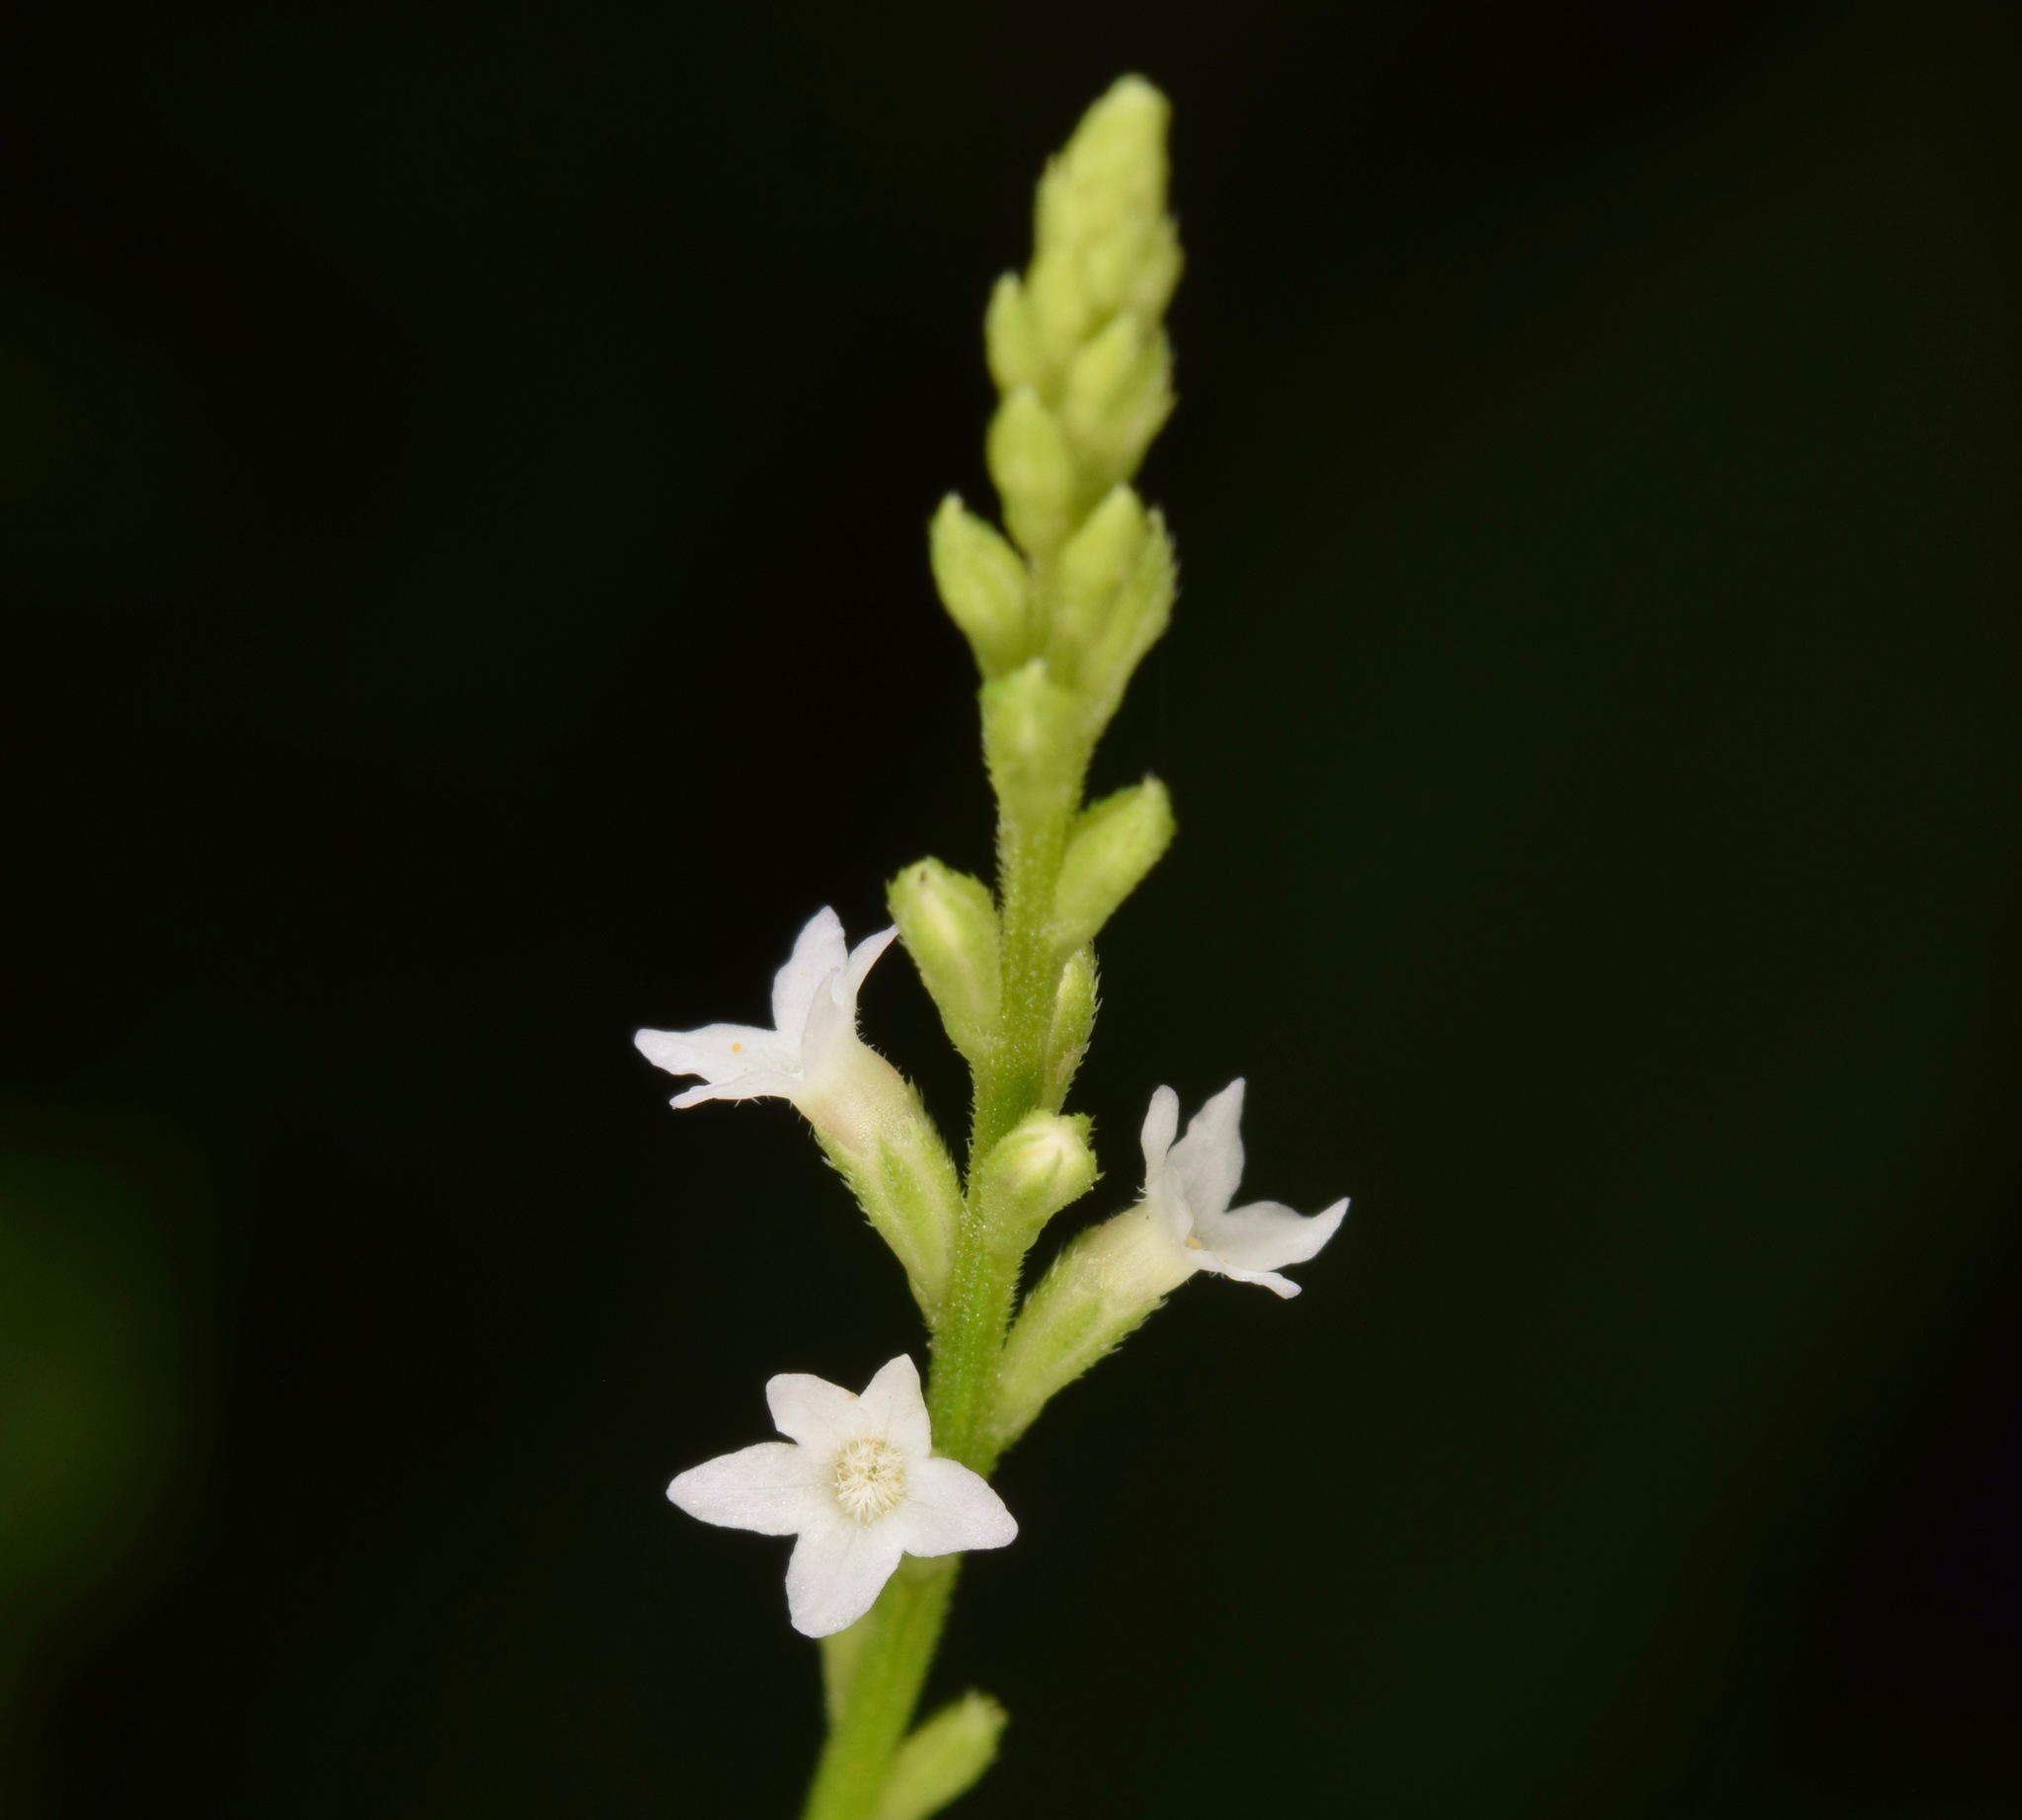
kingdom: Plantae
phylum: Tracheophyta
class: Magnoliopsida
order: Lamiales
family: Verbenaceae
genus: Verbena
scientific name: Verbena urticifolia
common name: Nettle-leaved vervain
